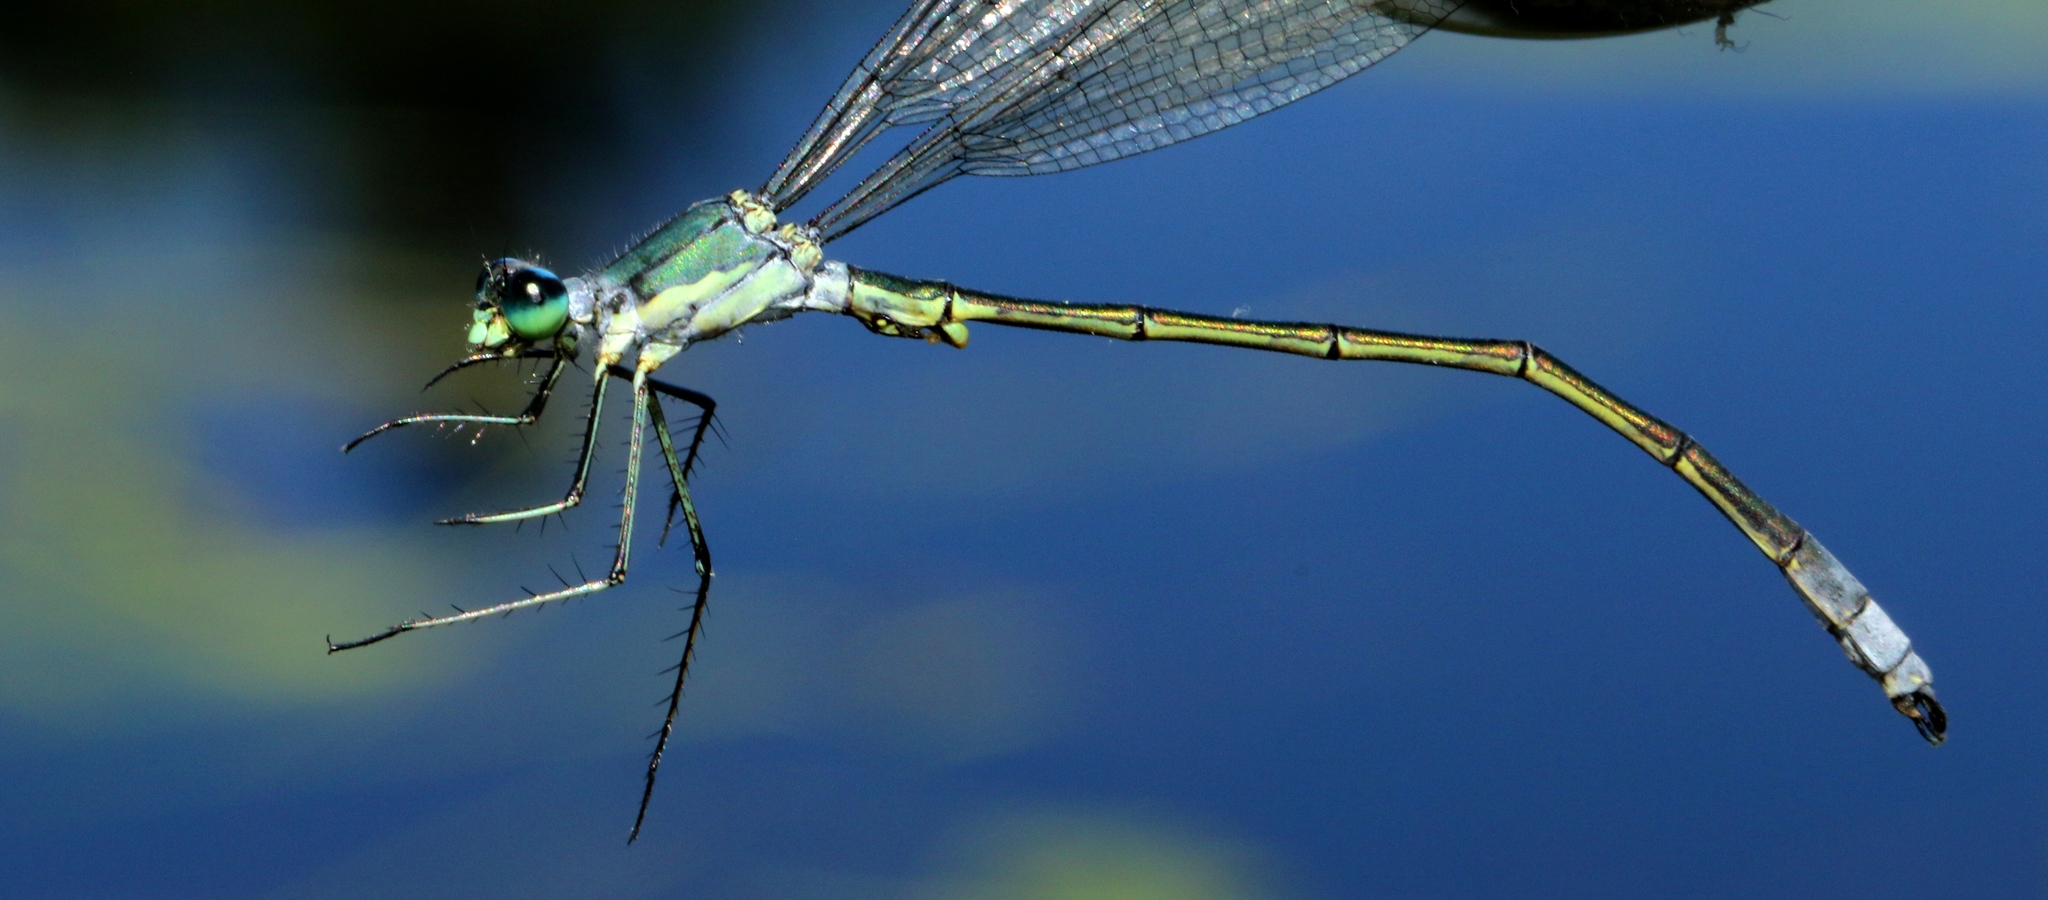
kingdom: Animalia
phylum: Arthropoda
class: Insecta
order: Odonata
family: Lestidae
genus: Lestes
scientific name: Lestes inaequalis
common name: Elegant spreadwing
